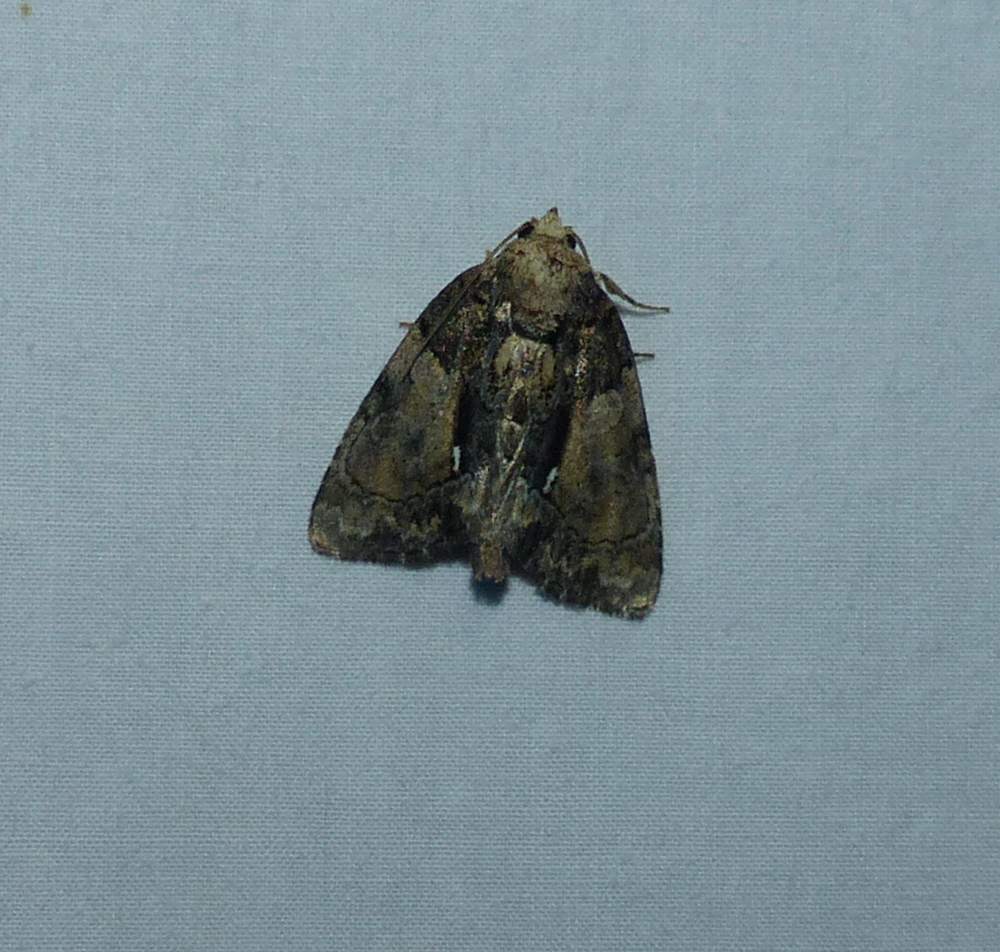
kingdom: Animalia
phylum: Arthropoda
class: Insecta
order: Lepidoptera
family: Noctuidae
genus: Chytonix
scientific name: Chytonix palliatricula
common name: Cloaked marvel
